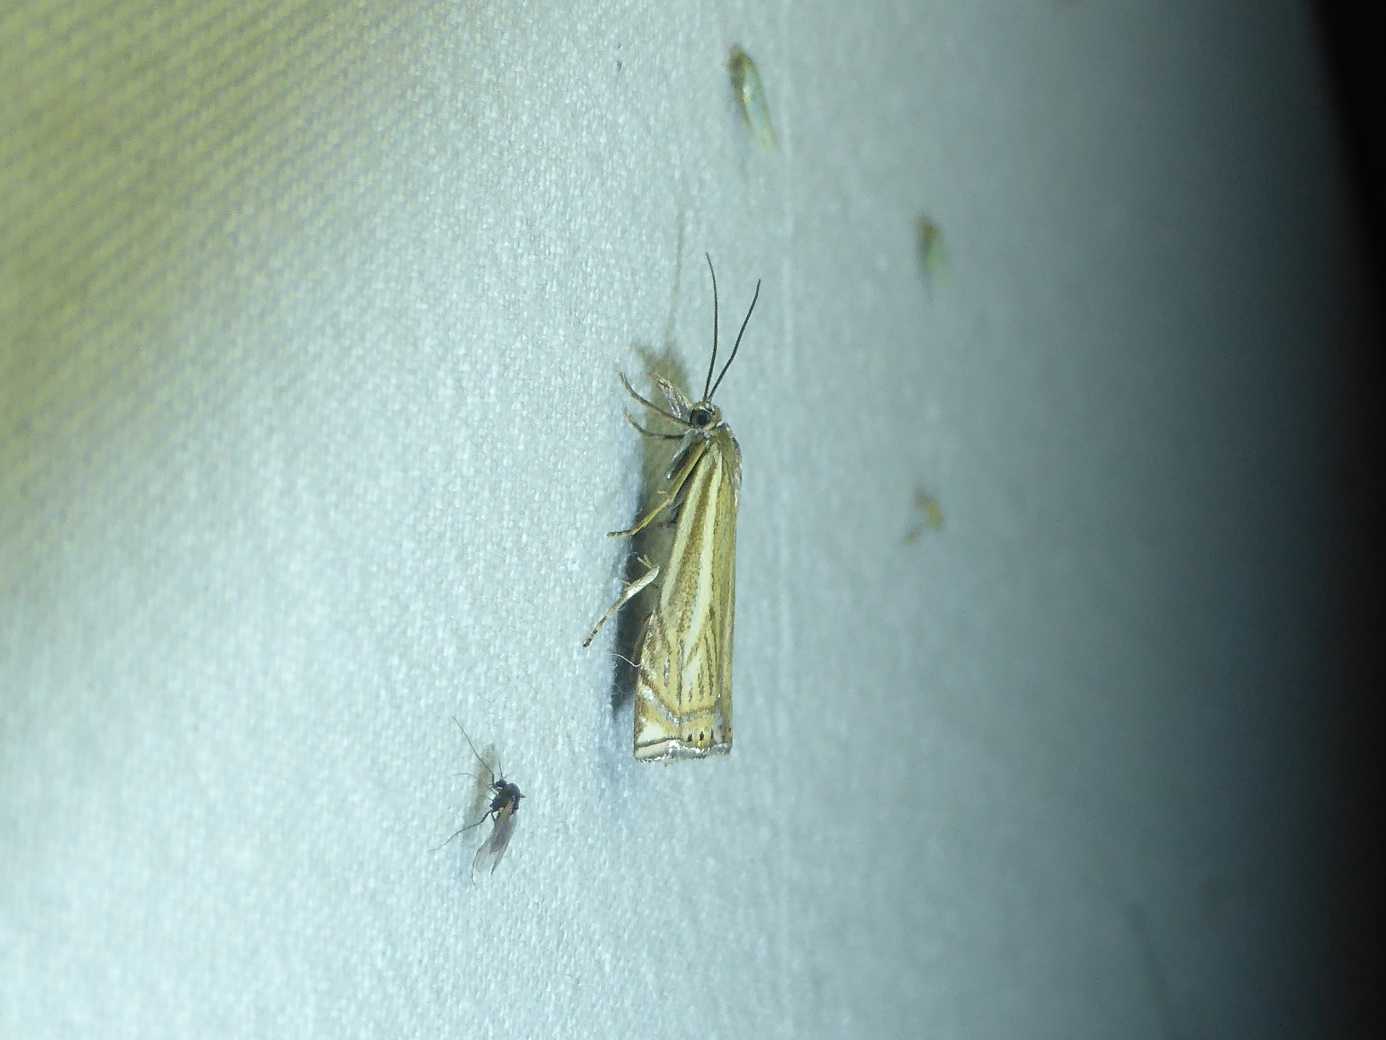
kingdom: Animalia
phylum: Arthropoda
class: Insecta
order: Lepidoptera
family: Crambidae
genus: Crambus
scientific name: Crambus nemorella
